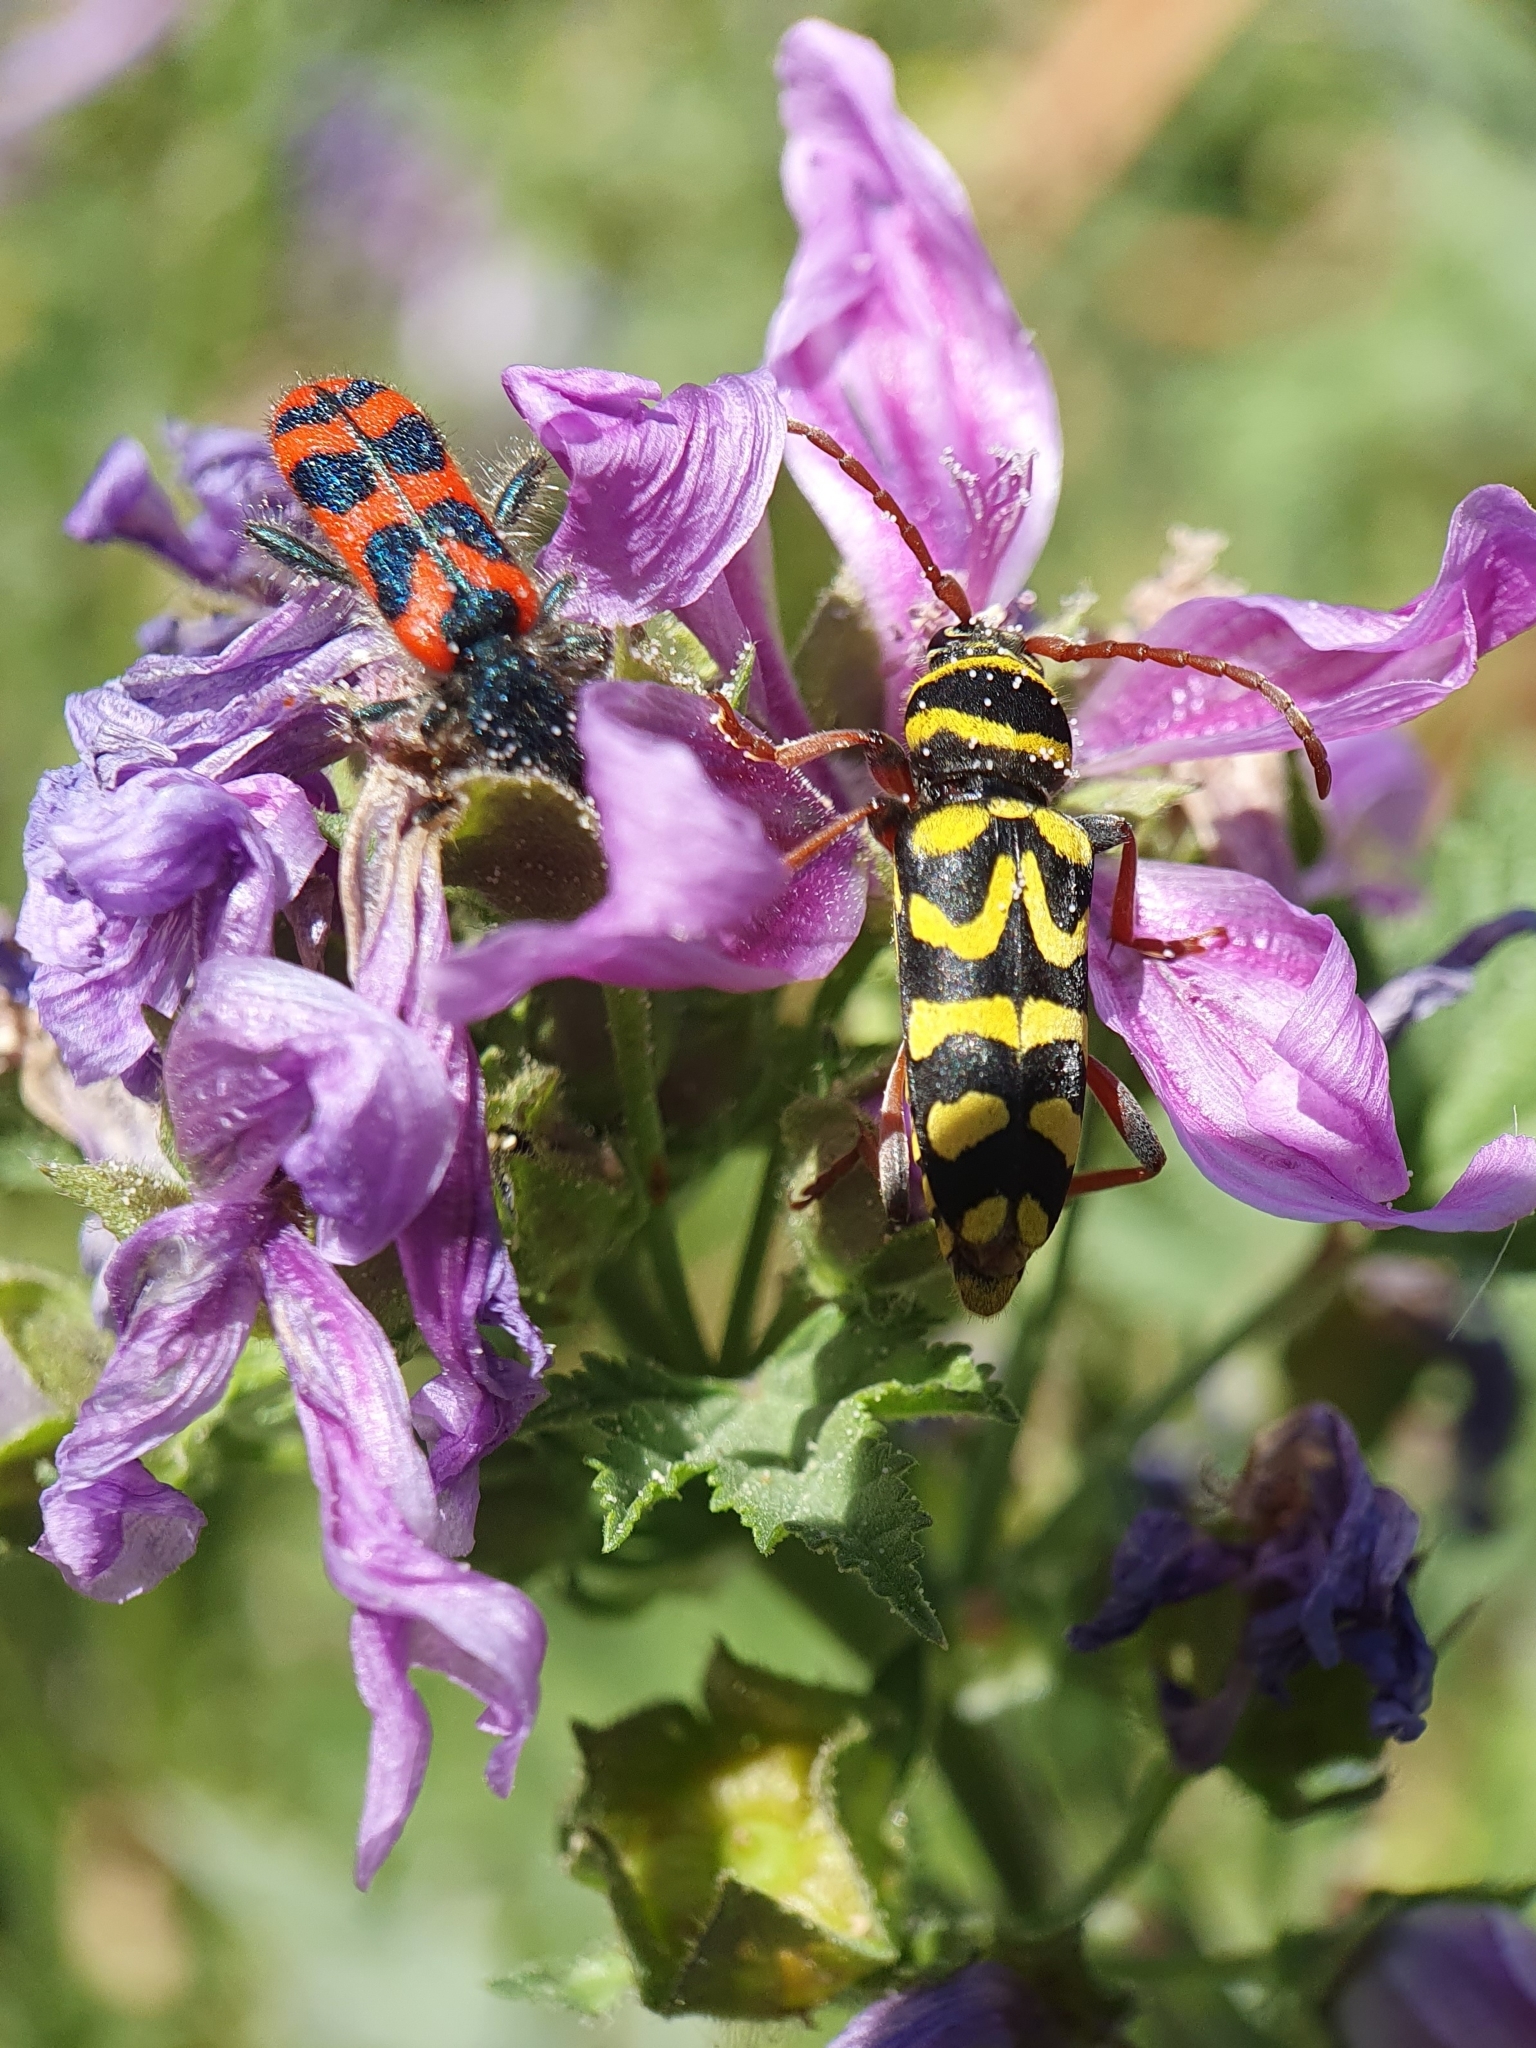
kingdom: Animalia
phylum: Arthropoda
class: Insecta
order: Coleoptera
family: Cerambycidae
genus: Neoplagionotus
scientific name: Neoplagionotus scalaris
